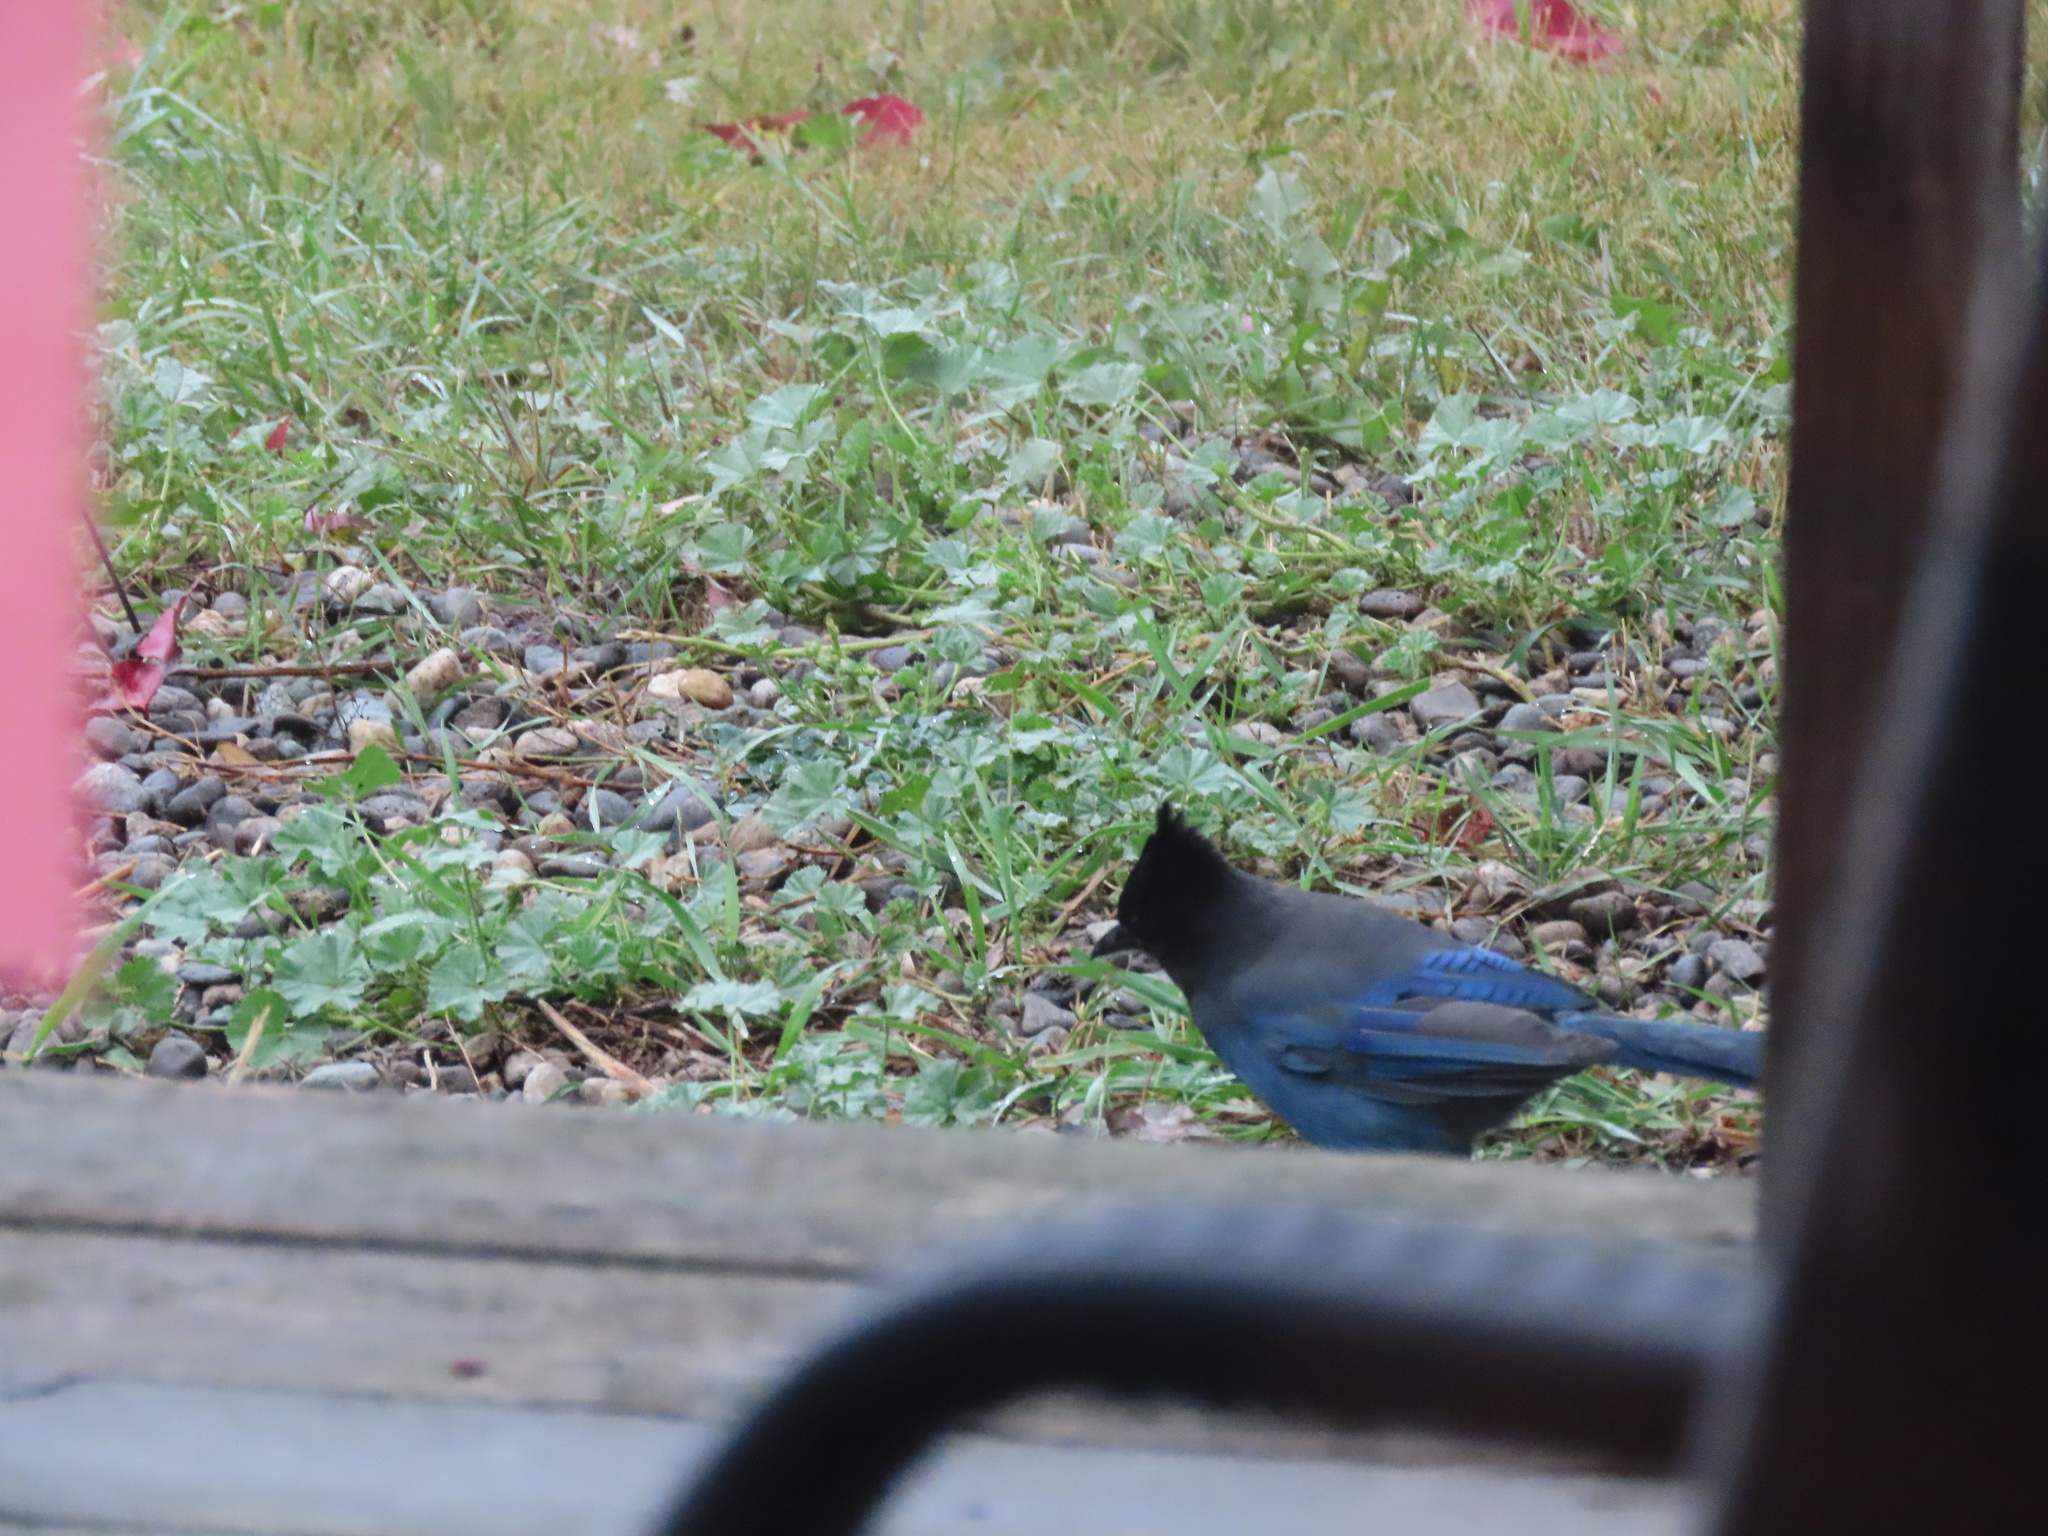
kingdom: Animalia
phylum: Chordata
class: Aves
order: Passeriformes
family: Corvidae
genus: Cyanocitta
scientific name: Cyanocitta stelleri
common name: Steller's jay
